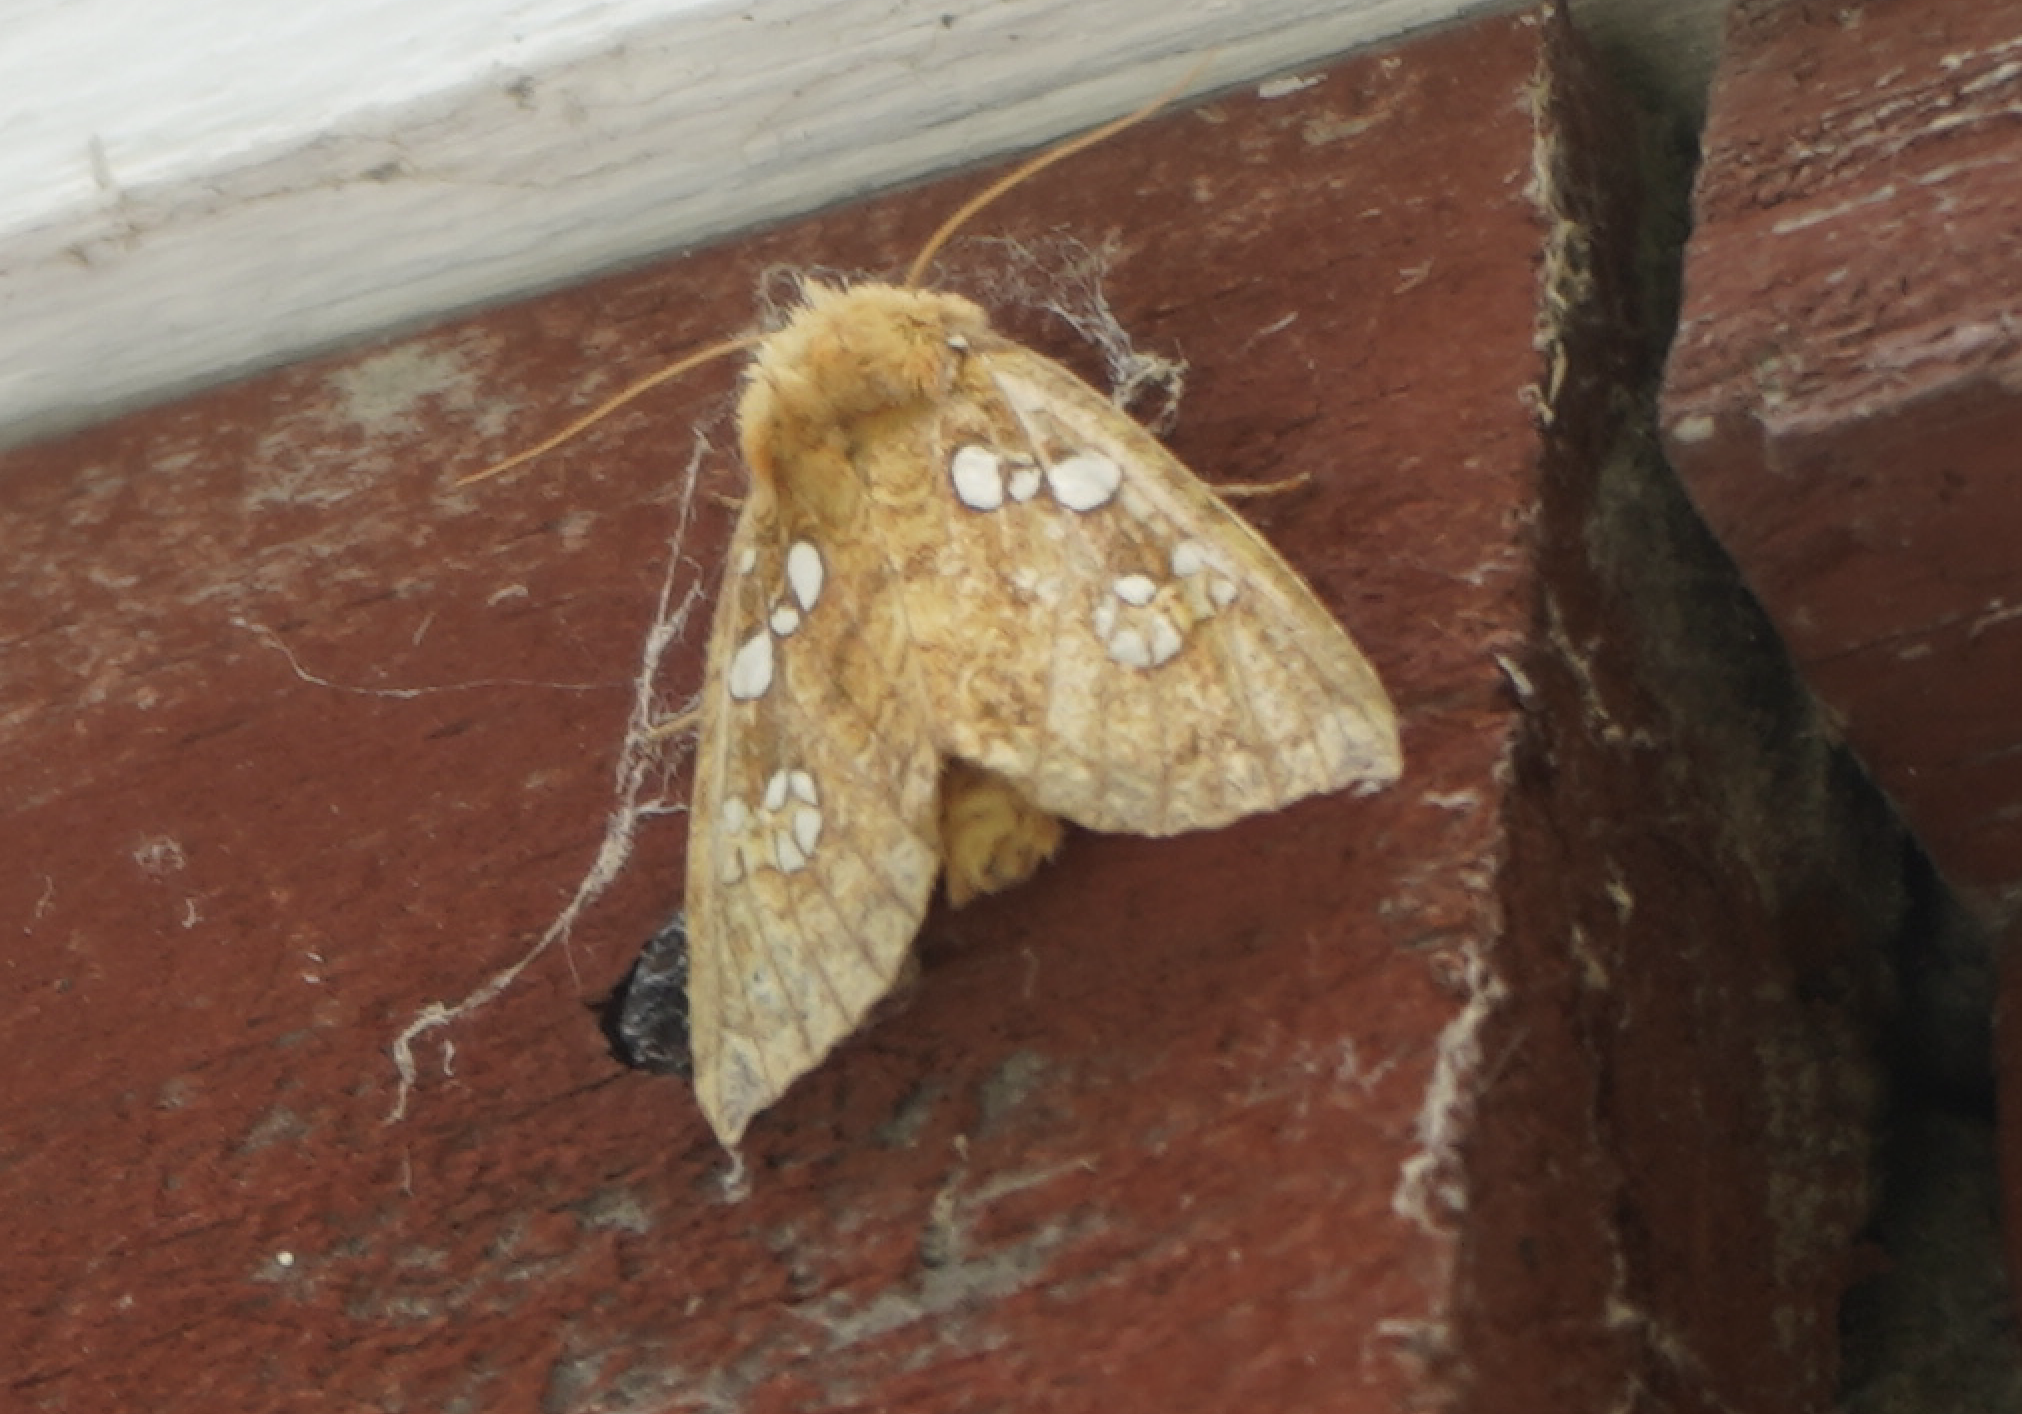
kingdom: Animalia
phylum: Arthropoda
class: Insecta
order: Lepidoptera
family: Noctuidae
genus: Papaipema
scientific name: Papaipema furcata
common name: Ash tip borer moth
